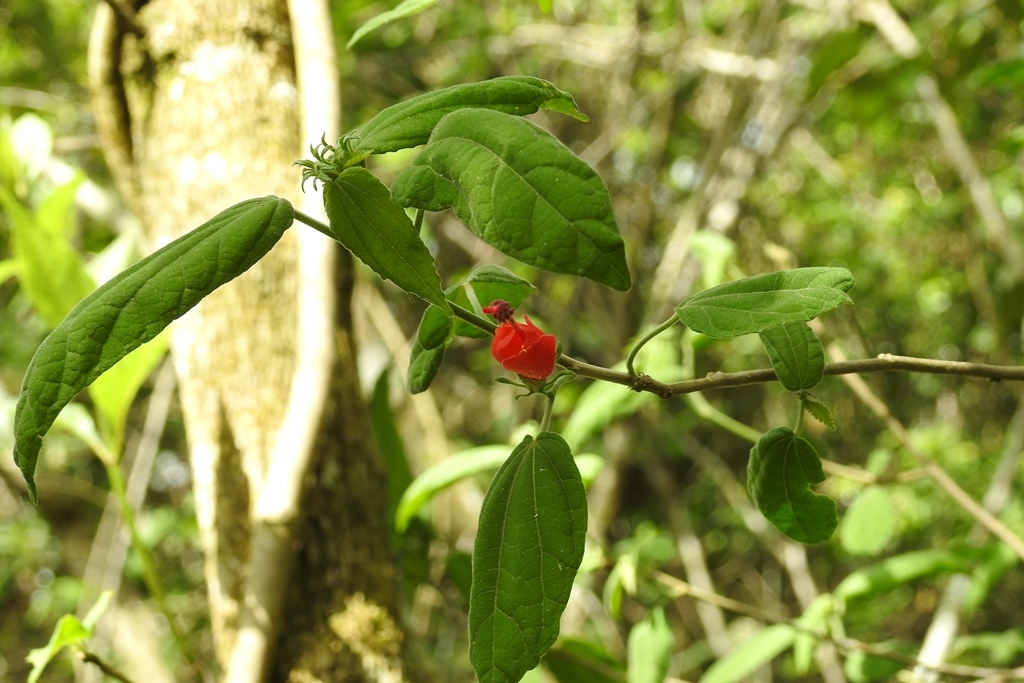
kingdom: Plantae
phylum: Tracheophyta
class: Magnoliopsida
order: Malvales
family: Malvaceae
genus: Malvaviscus
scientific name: Malvaviscus arboreus
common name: Wax mallow
